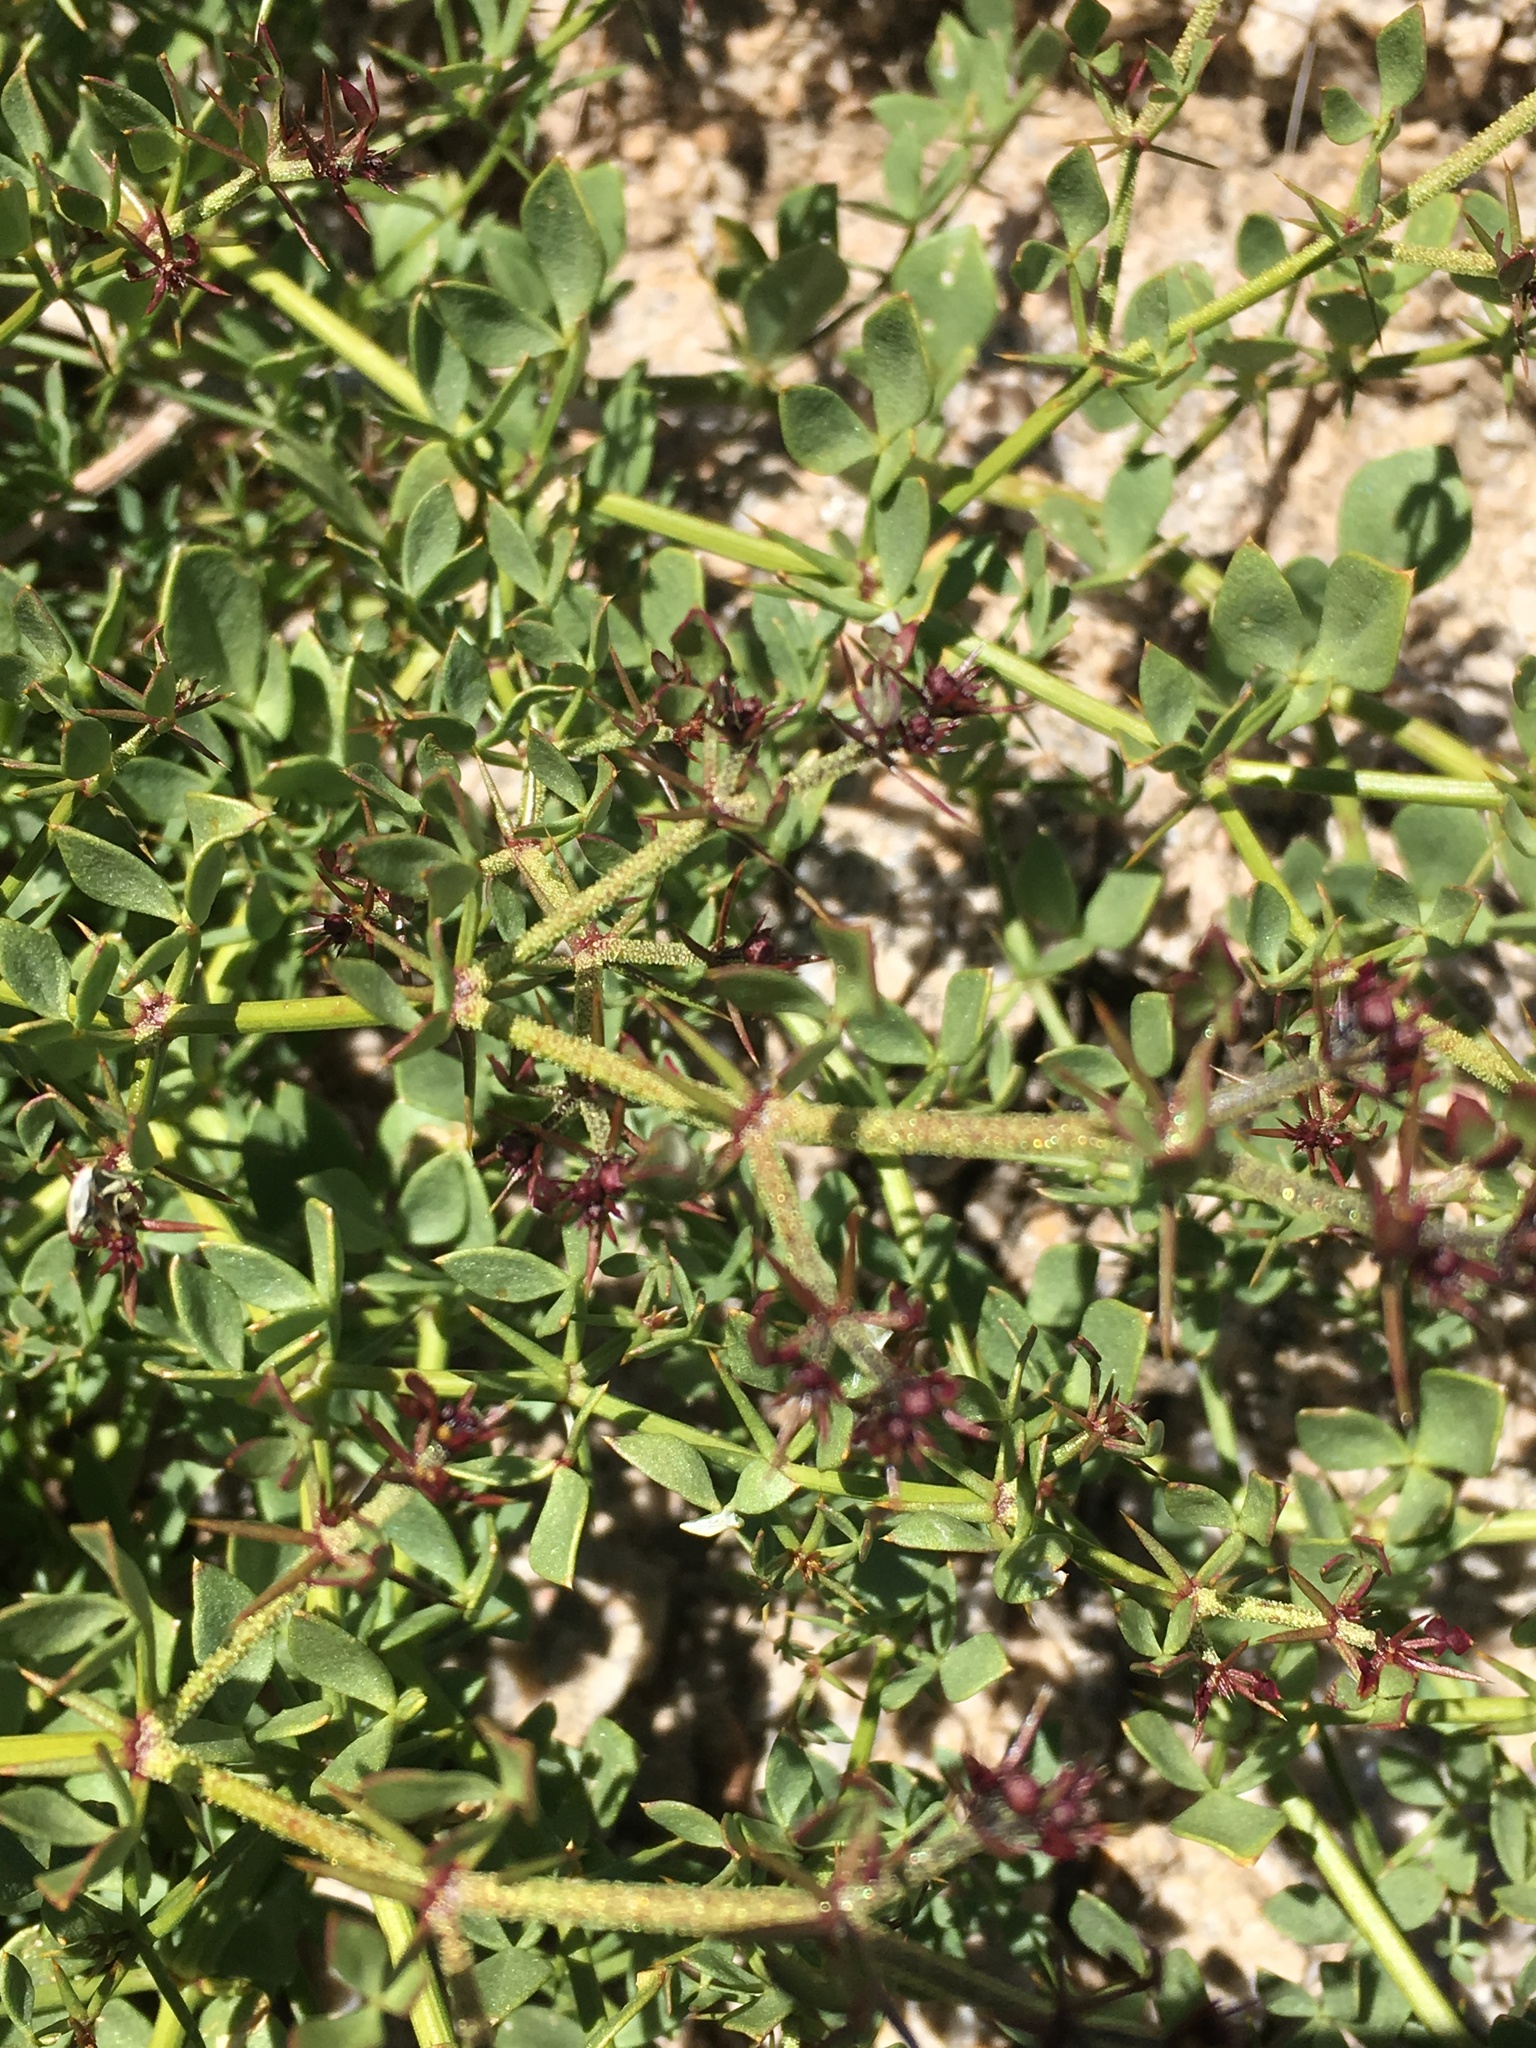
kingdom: Plantae
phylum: Tracheophyta
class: Magnoliopsida
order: Zygophyllales
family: Zygophyllaceae
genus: Fagonia
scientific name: Fagonia pachyacantha
